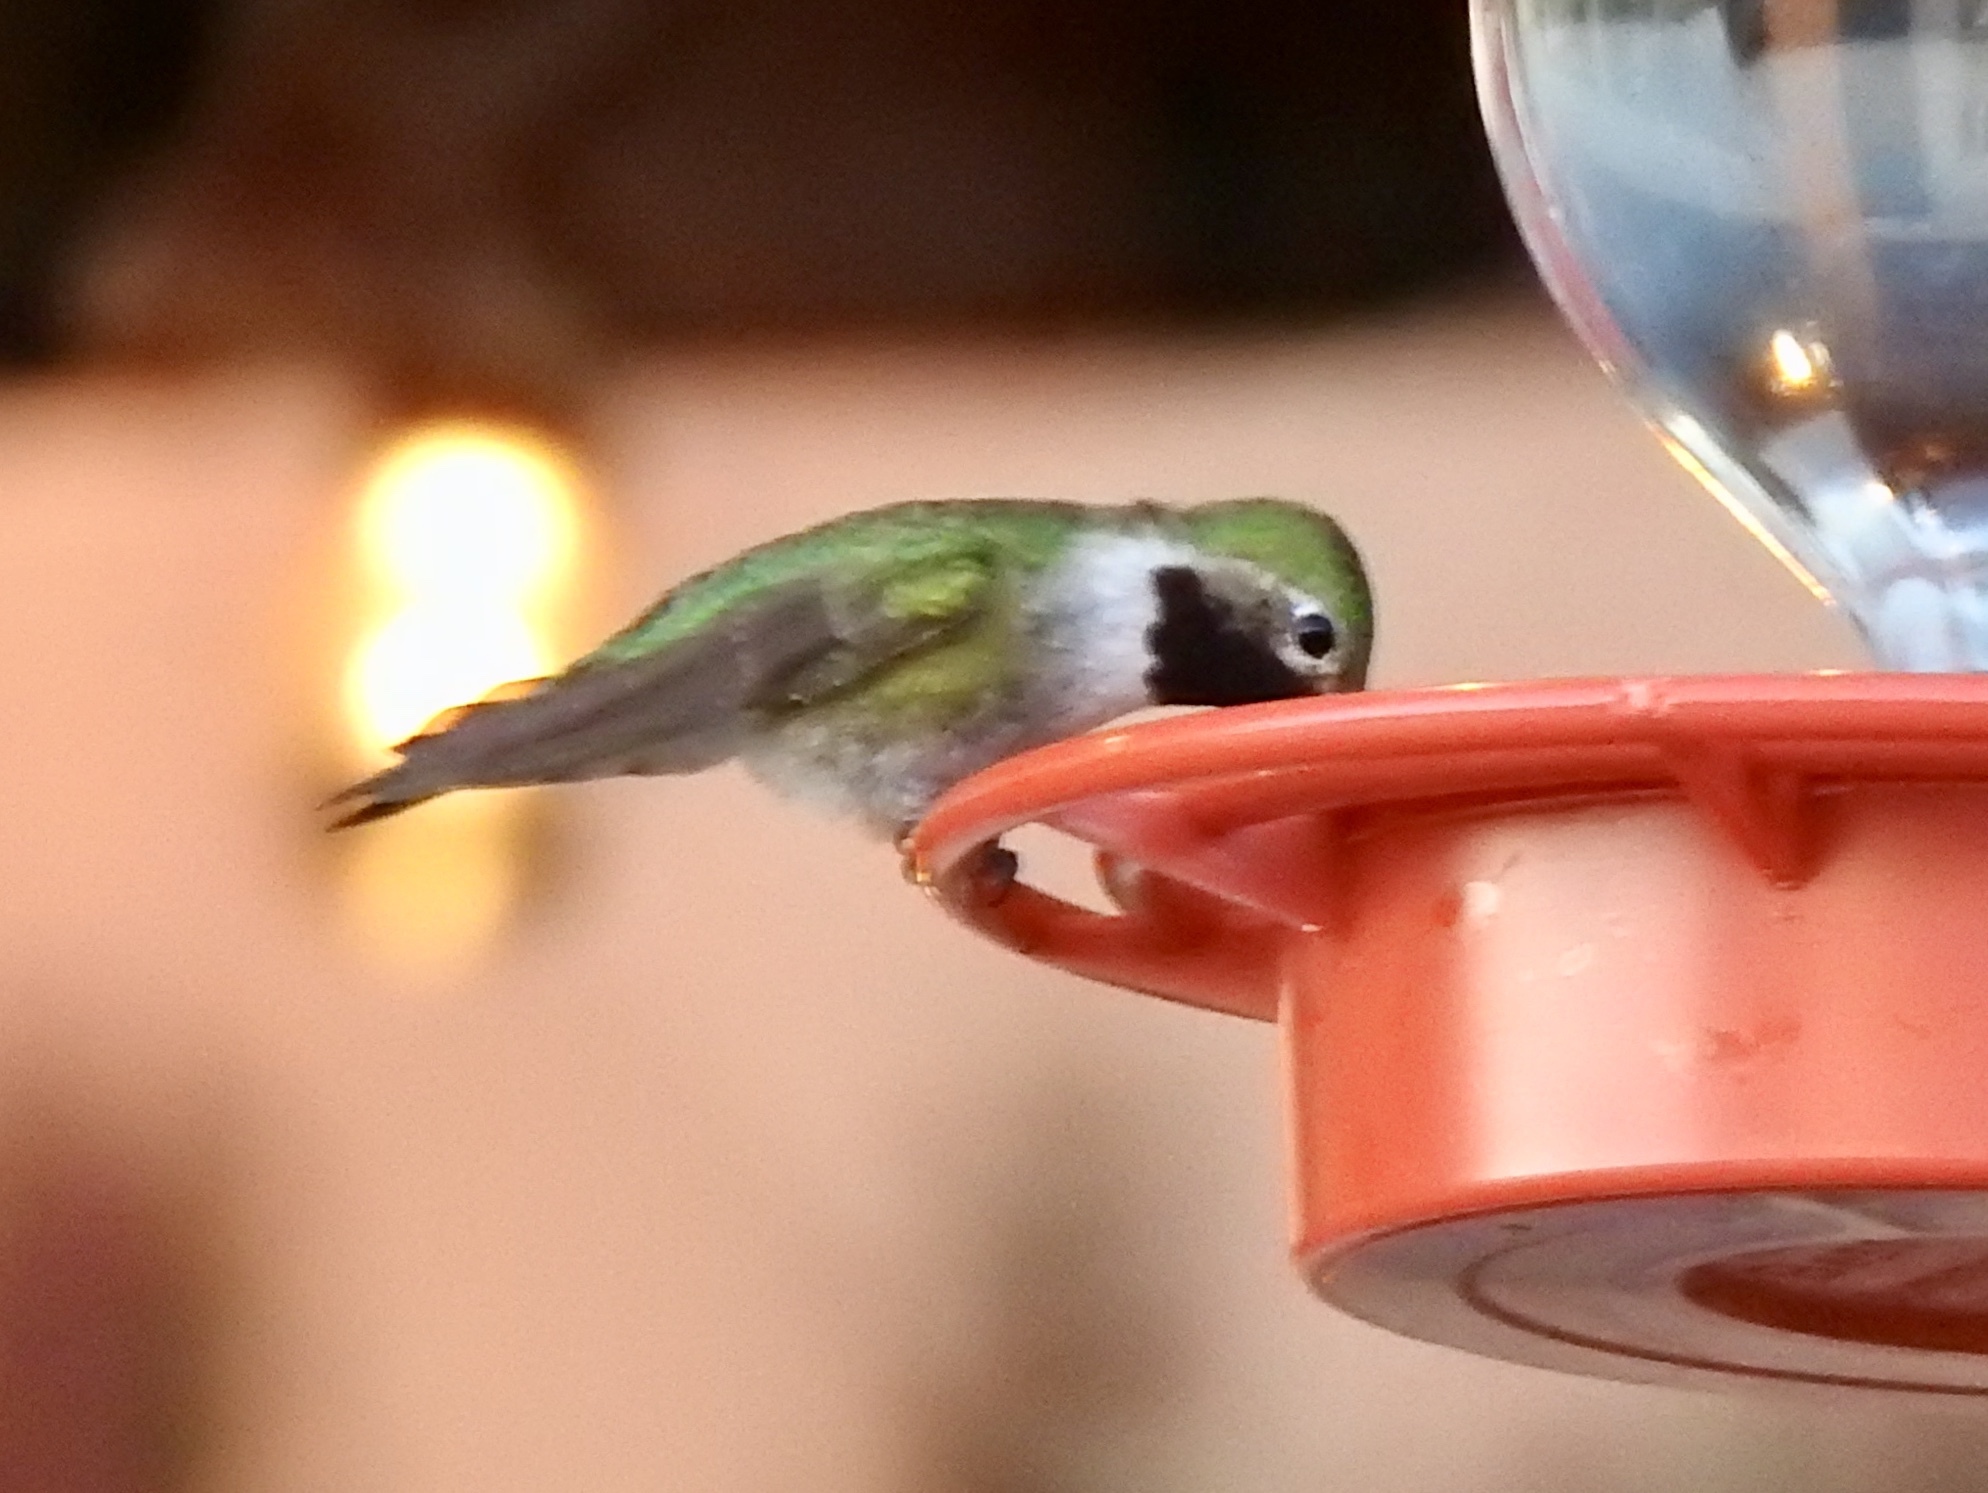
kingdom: Animalia
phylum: Chordata
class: Aves
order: Apodiformes
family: Trochilidae
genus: Selasphorus
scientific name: Selasphorus platycercus
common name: Broad-tailed hummingbird
